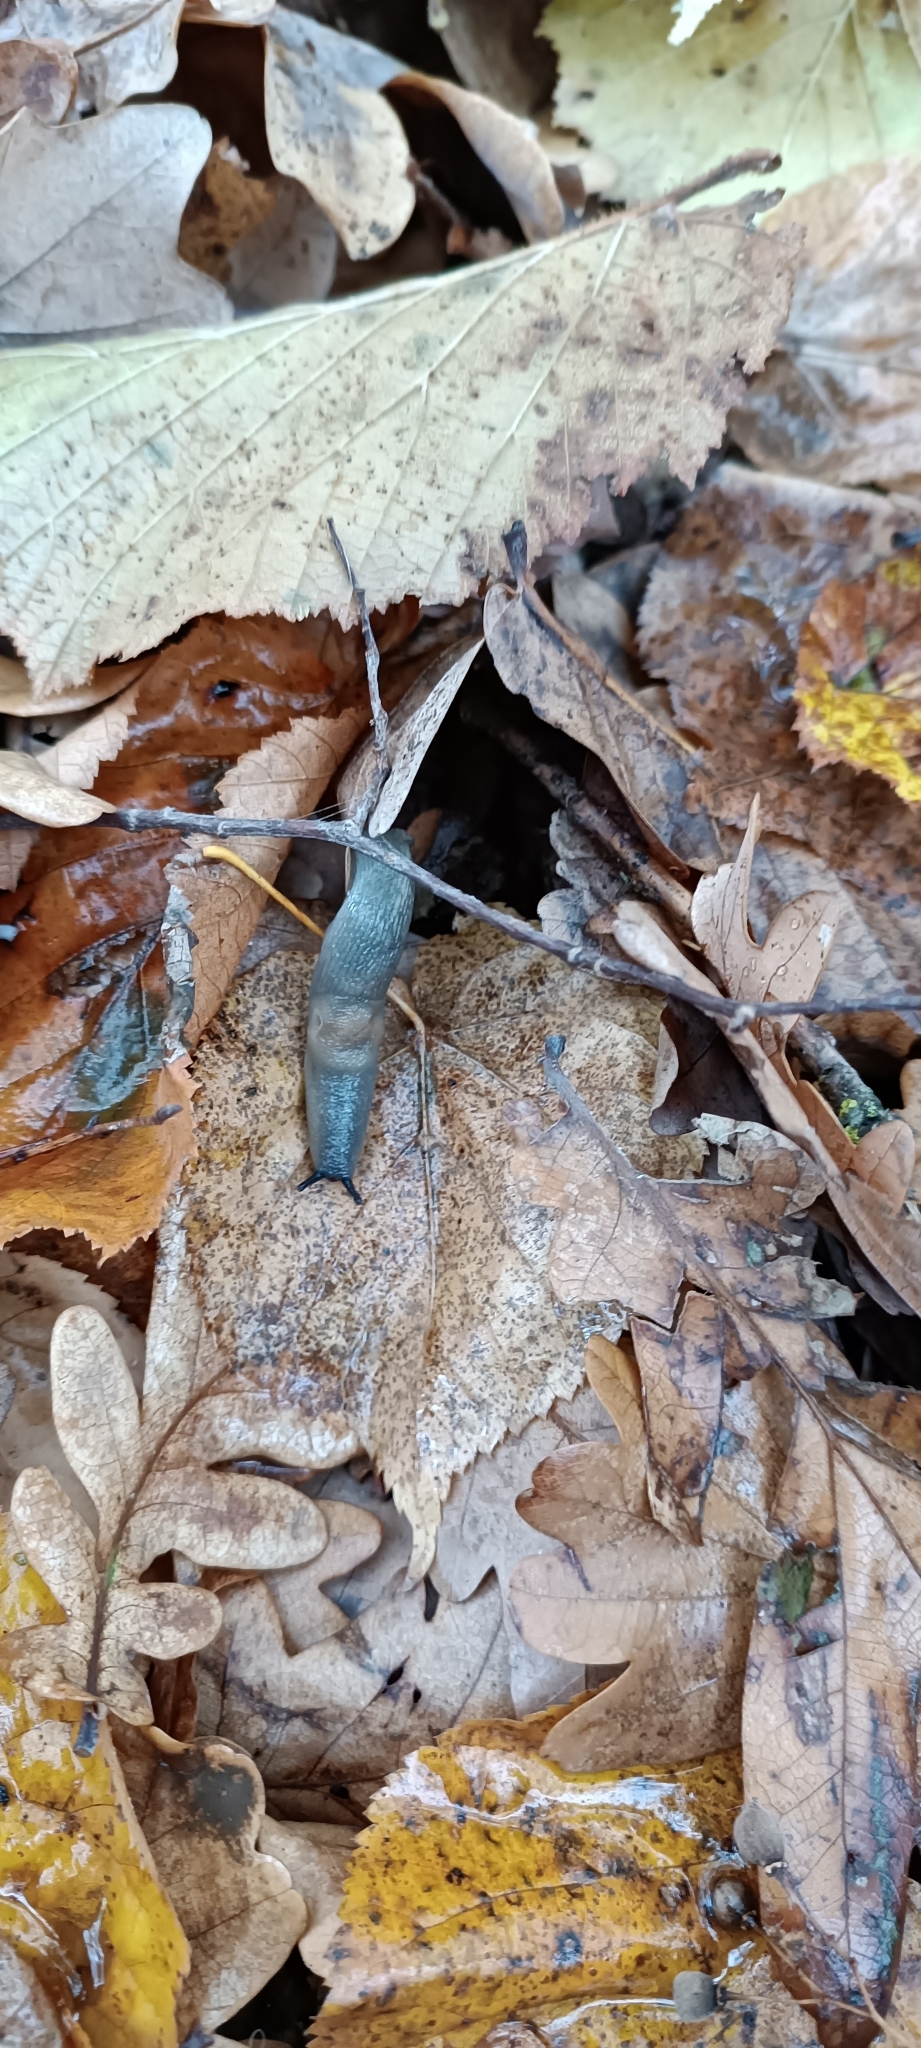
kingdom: Animalia
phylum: Mollusca
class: Gastropoda
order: Stylommatophora
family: Agriolimacidae
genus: Krynickillus
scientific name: Krynickillus melanocephalus
